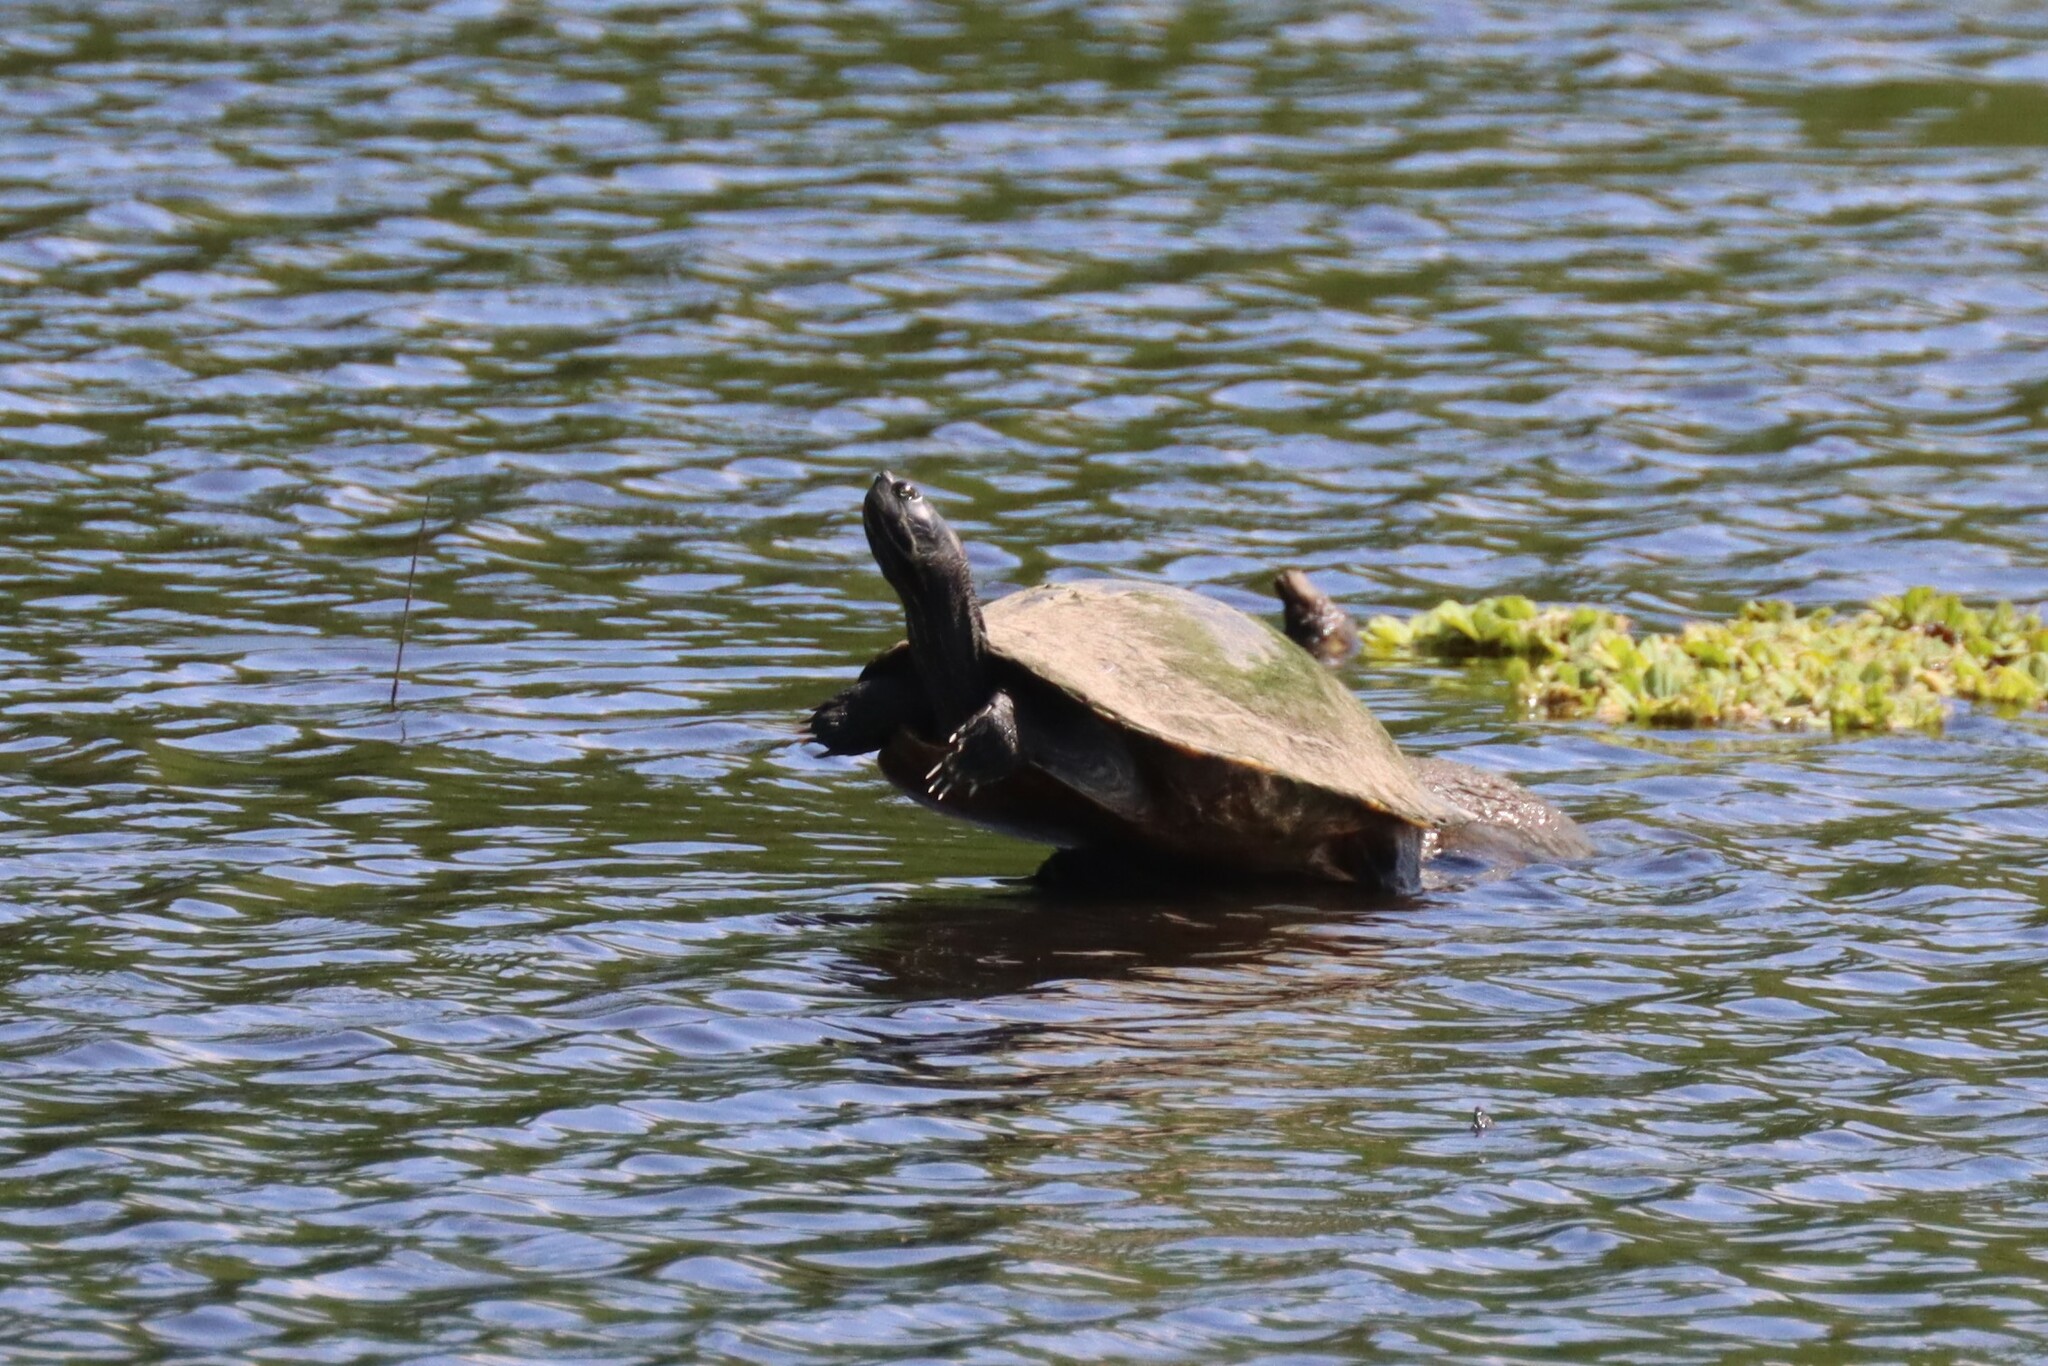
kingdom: Animalia
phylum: Chordata
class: Testudines
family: Emydidae
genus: Pseudemys
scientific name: Pseudemys concinna
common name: Eastern river cooter
